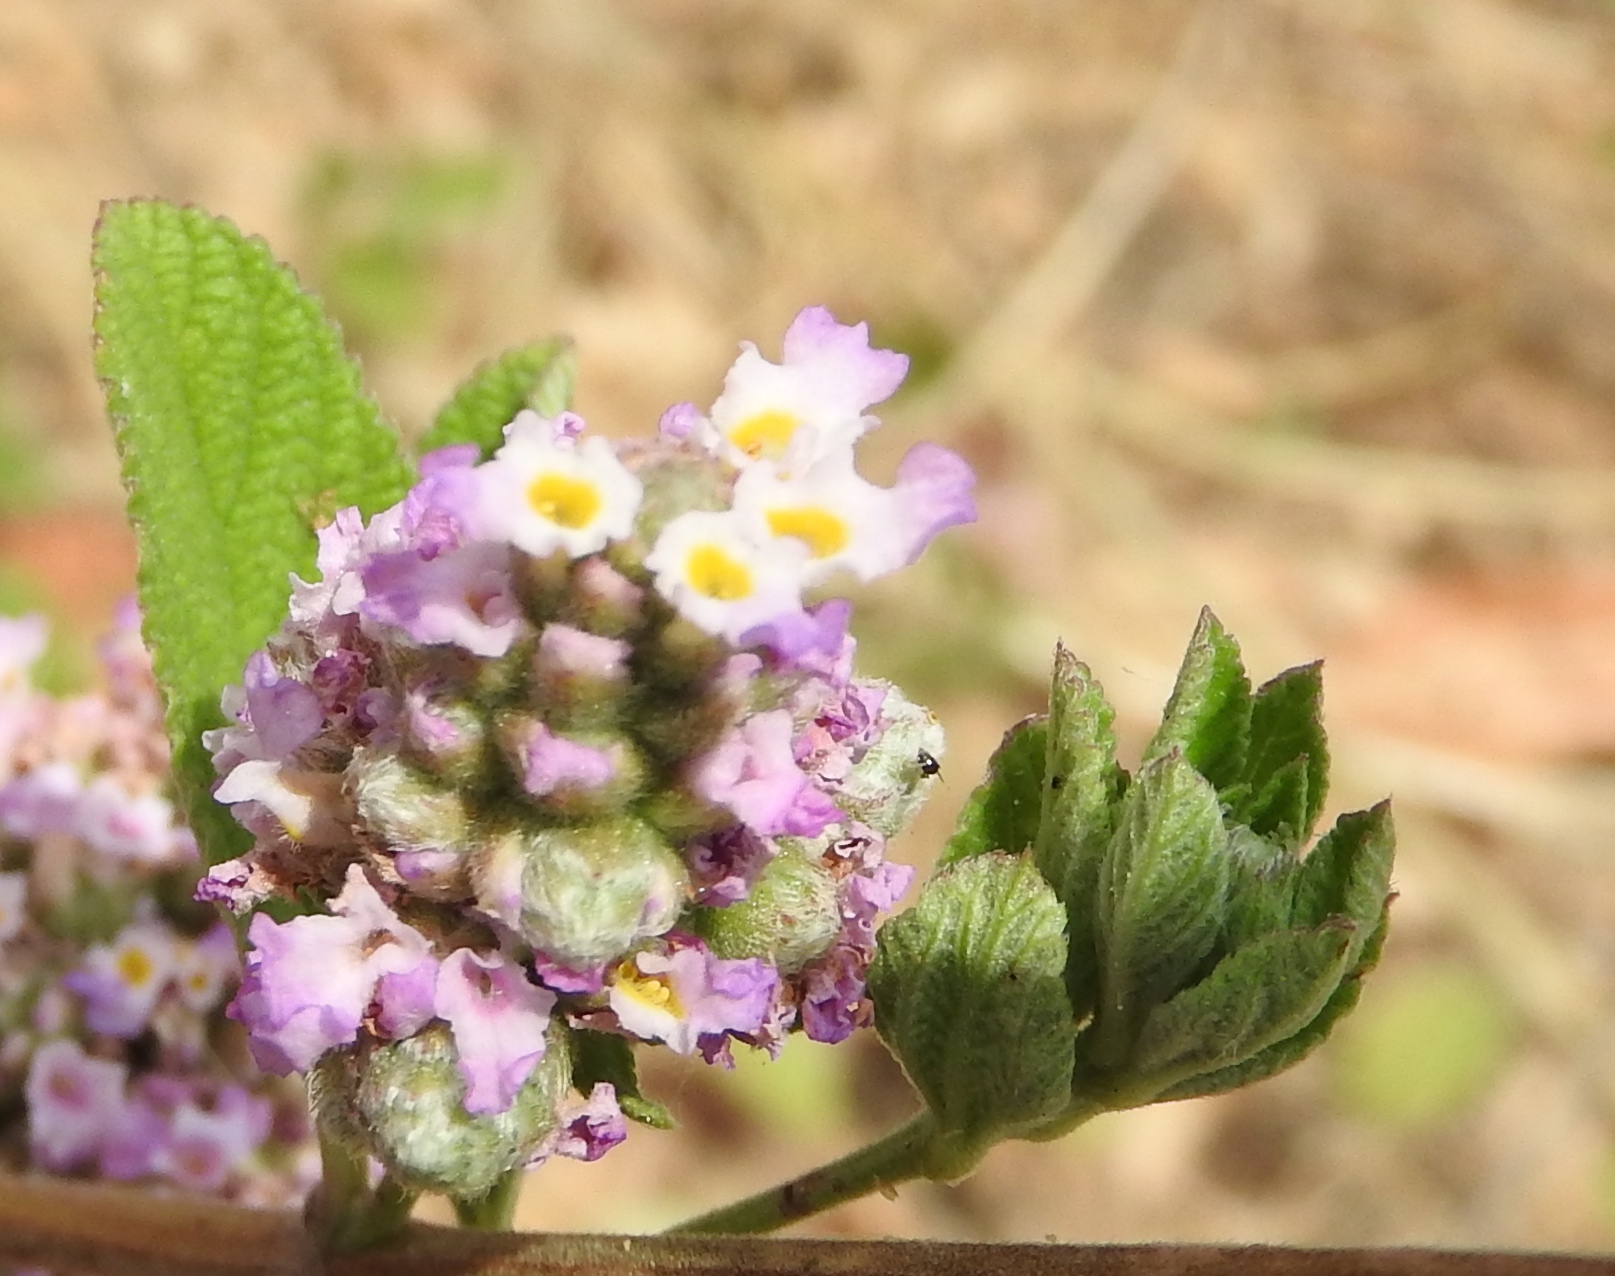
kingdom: Plantae
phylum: Tracheophyta
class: Magnoliopsida
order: Lamiales
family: Verbenaceae
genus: Lippia
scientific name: Lippia alba
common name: Bushy matgrass
